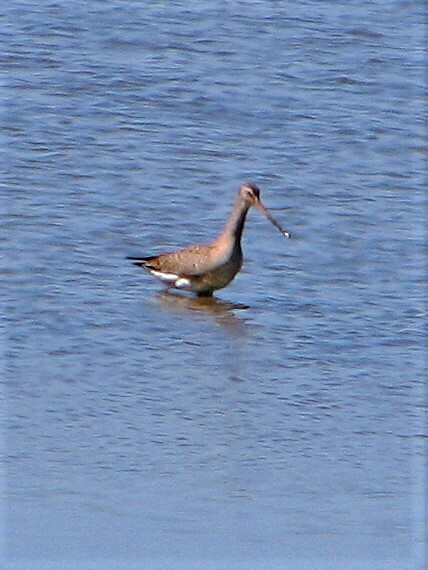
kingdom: Animalia
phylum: Chordata
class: Aves
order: Charadriiformes
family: Scolopacidae
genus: Limosa
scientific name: Limosa haemastica
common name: Hudsonian godwit
